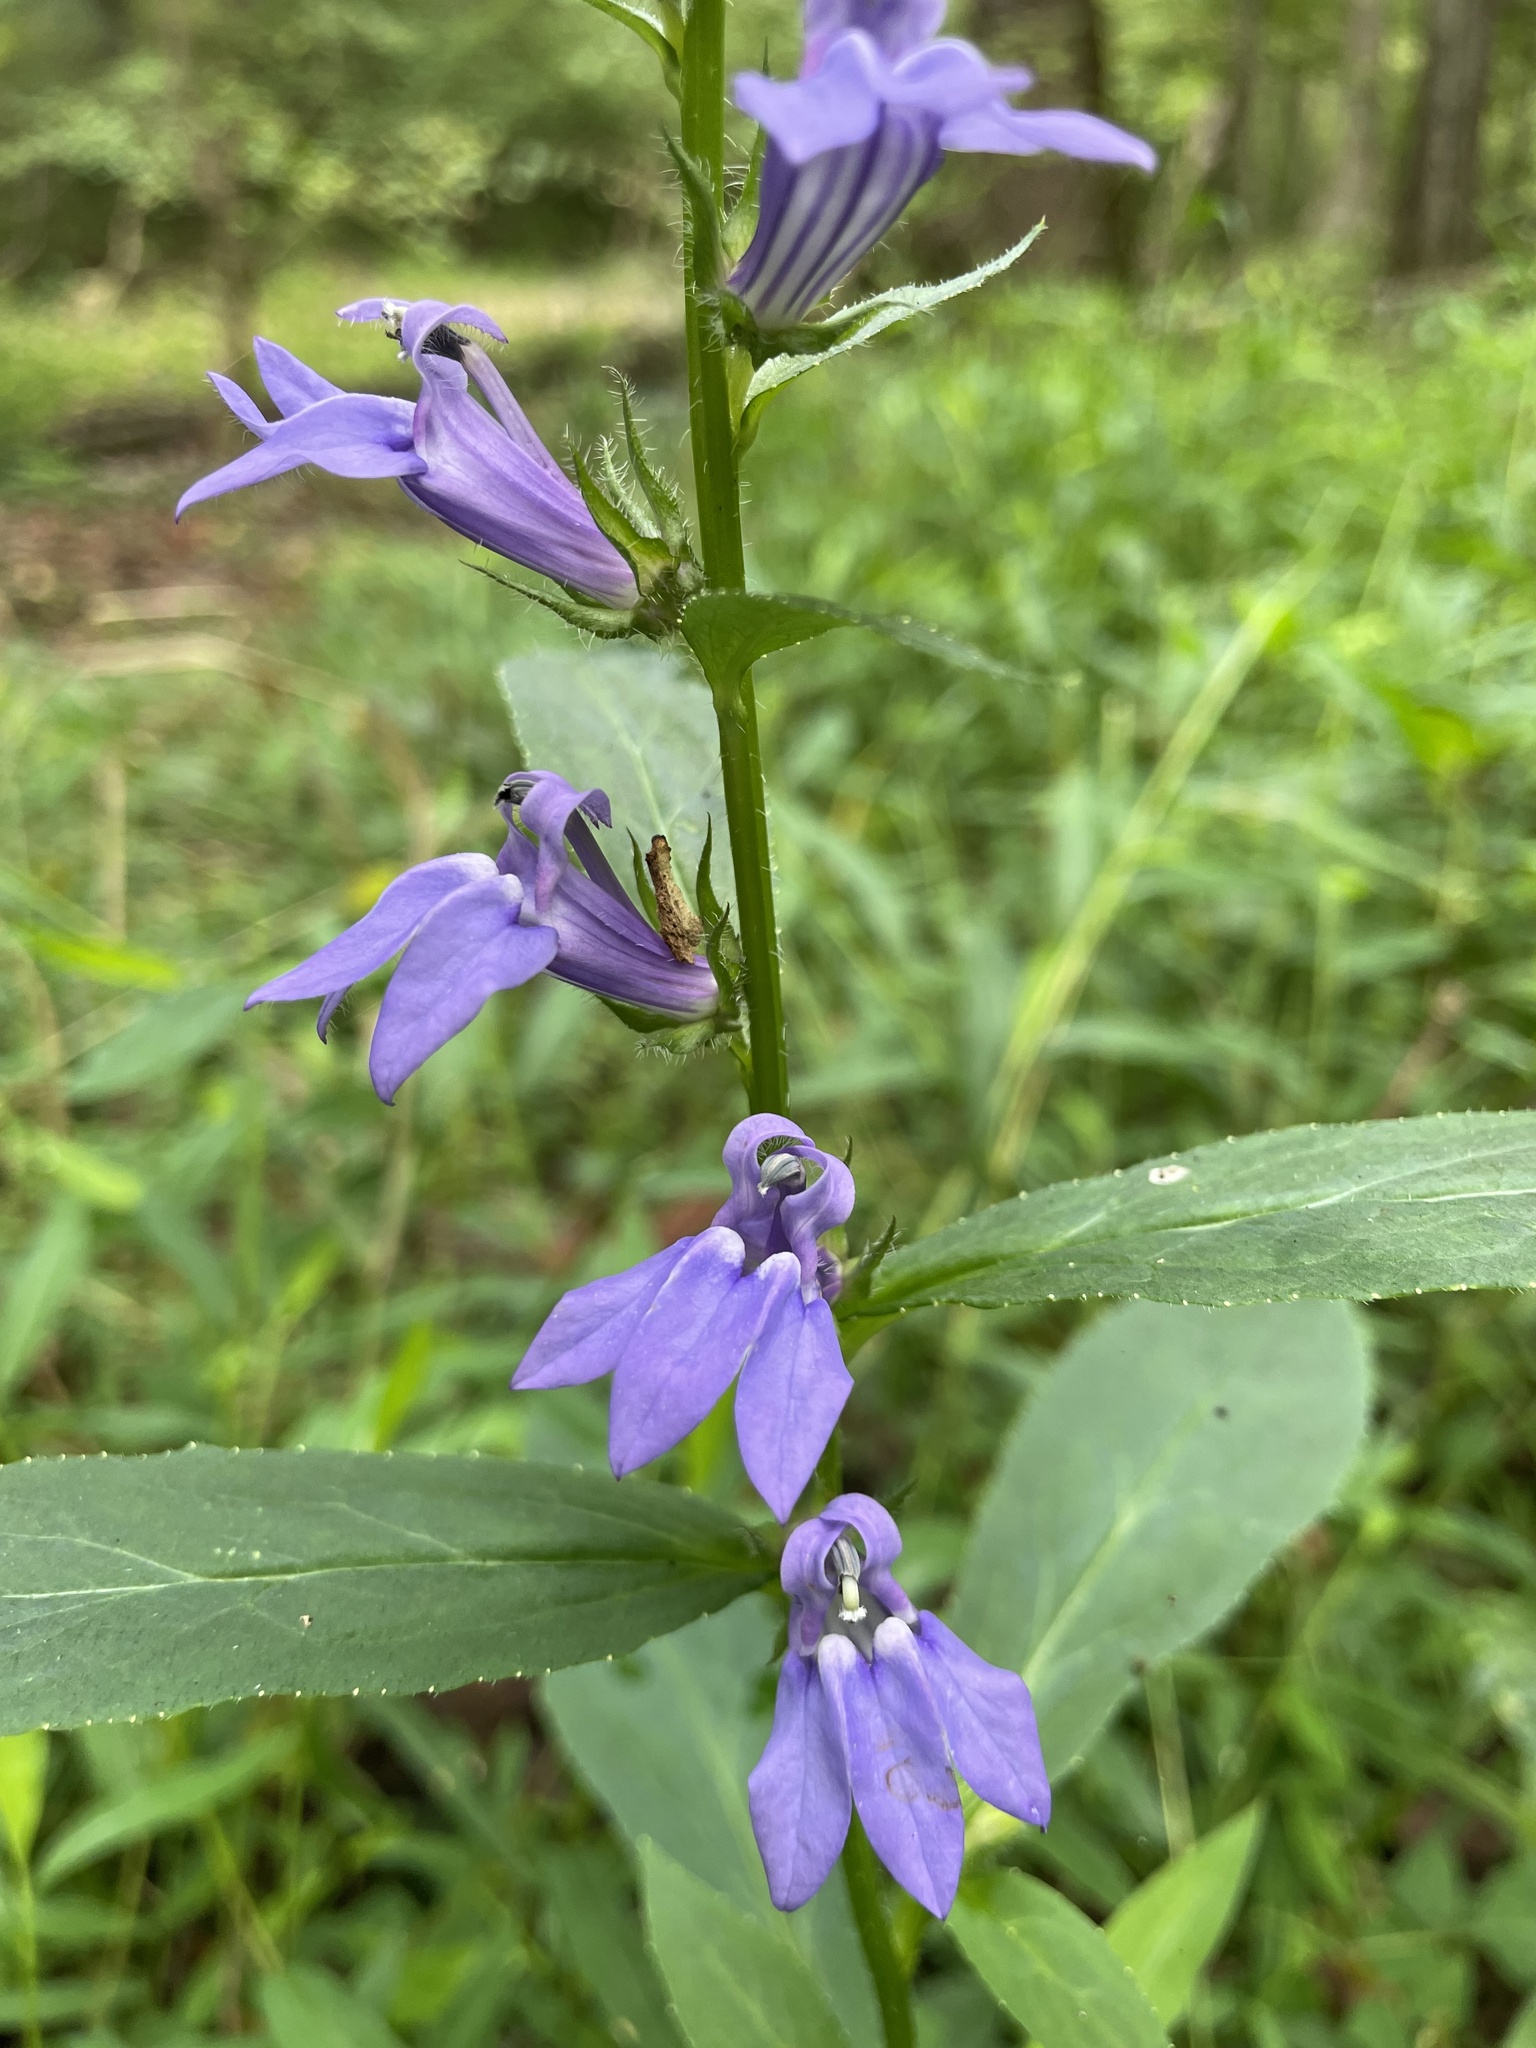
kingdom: Plantae
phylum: Tracheophyta
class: Magnoliopsida
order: Asterales
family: Campanulaceae
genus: Lobelia
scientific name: Lobelia siphilitica
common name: Great lobelia
